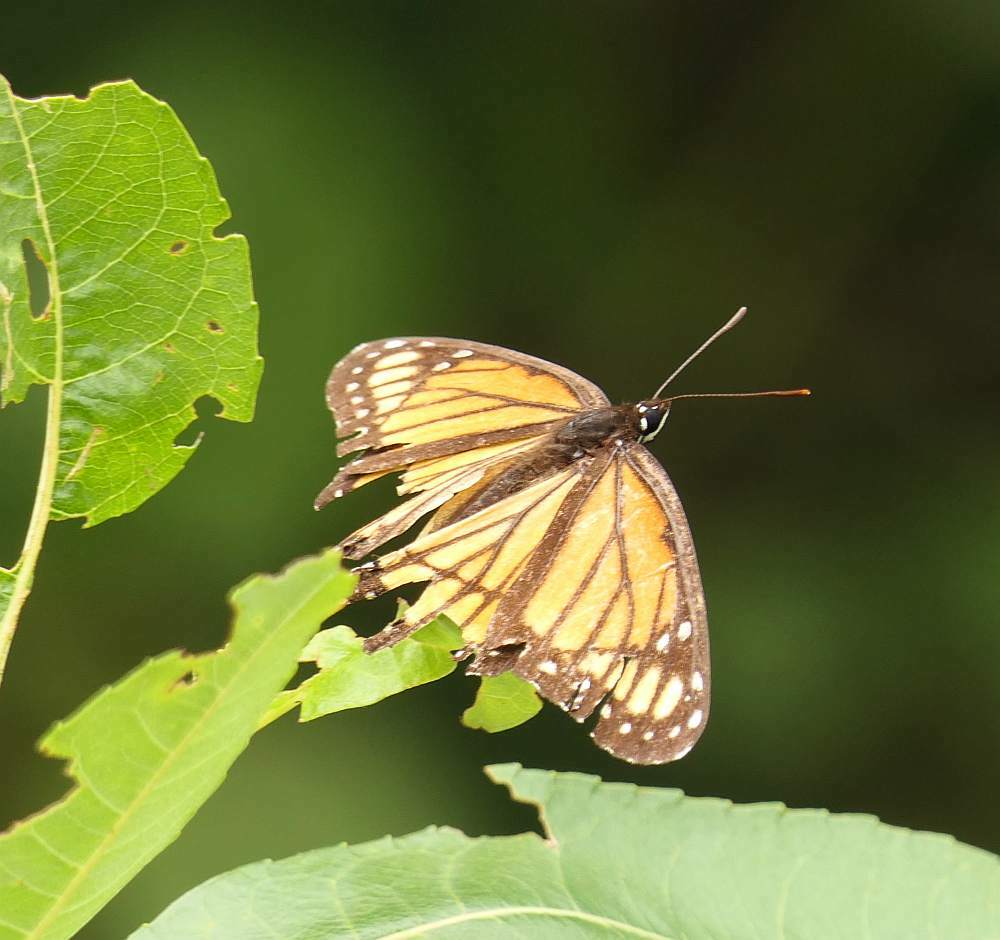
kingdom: Animalia
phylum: Arthropoda
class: Insecta
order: Lepidoptera
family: Nymphalidae
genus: Limenitis
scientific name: Limenitis archippus
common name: Viceroy
